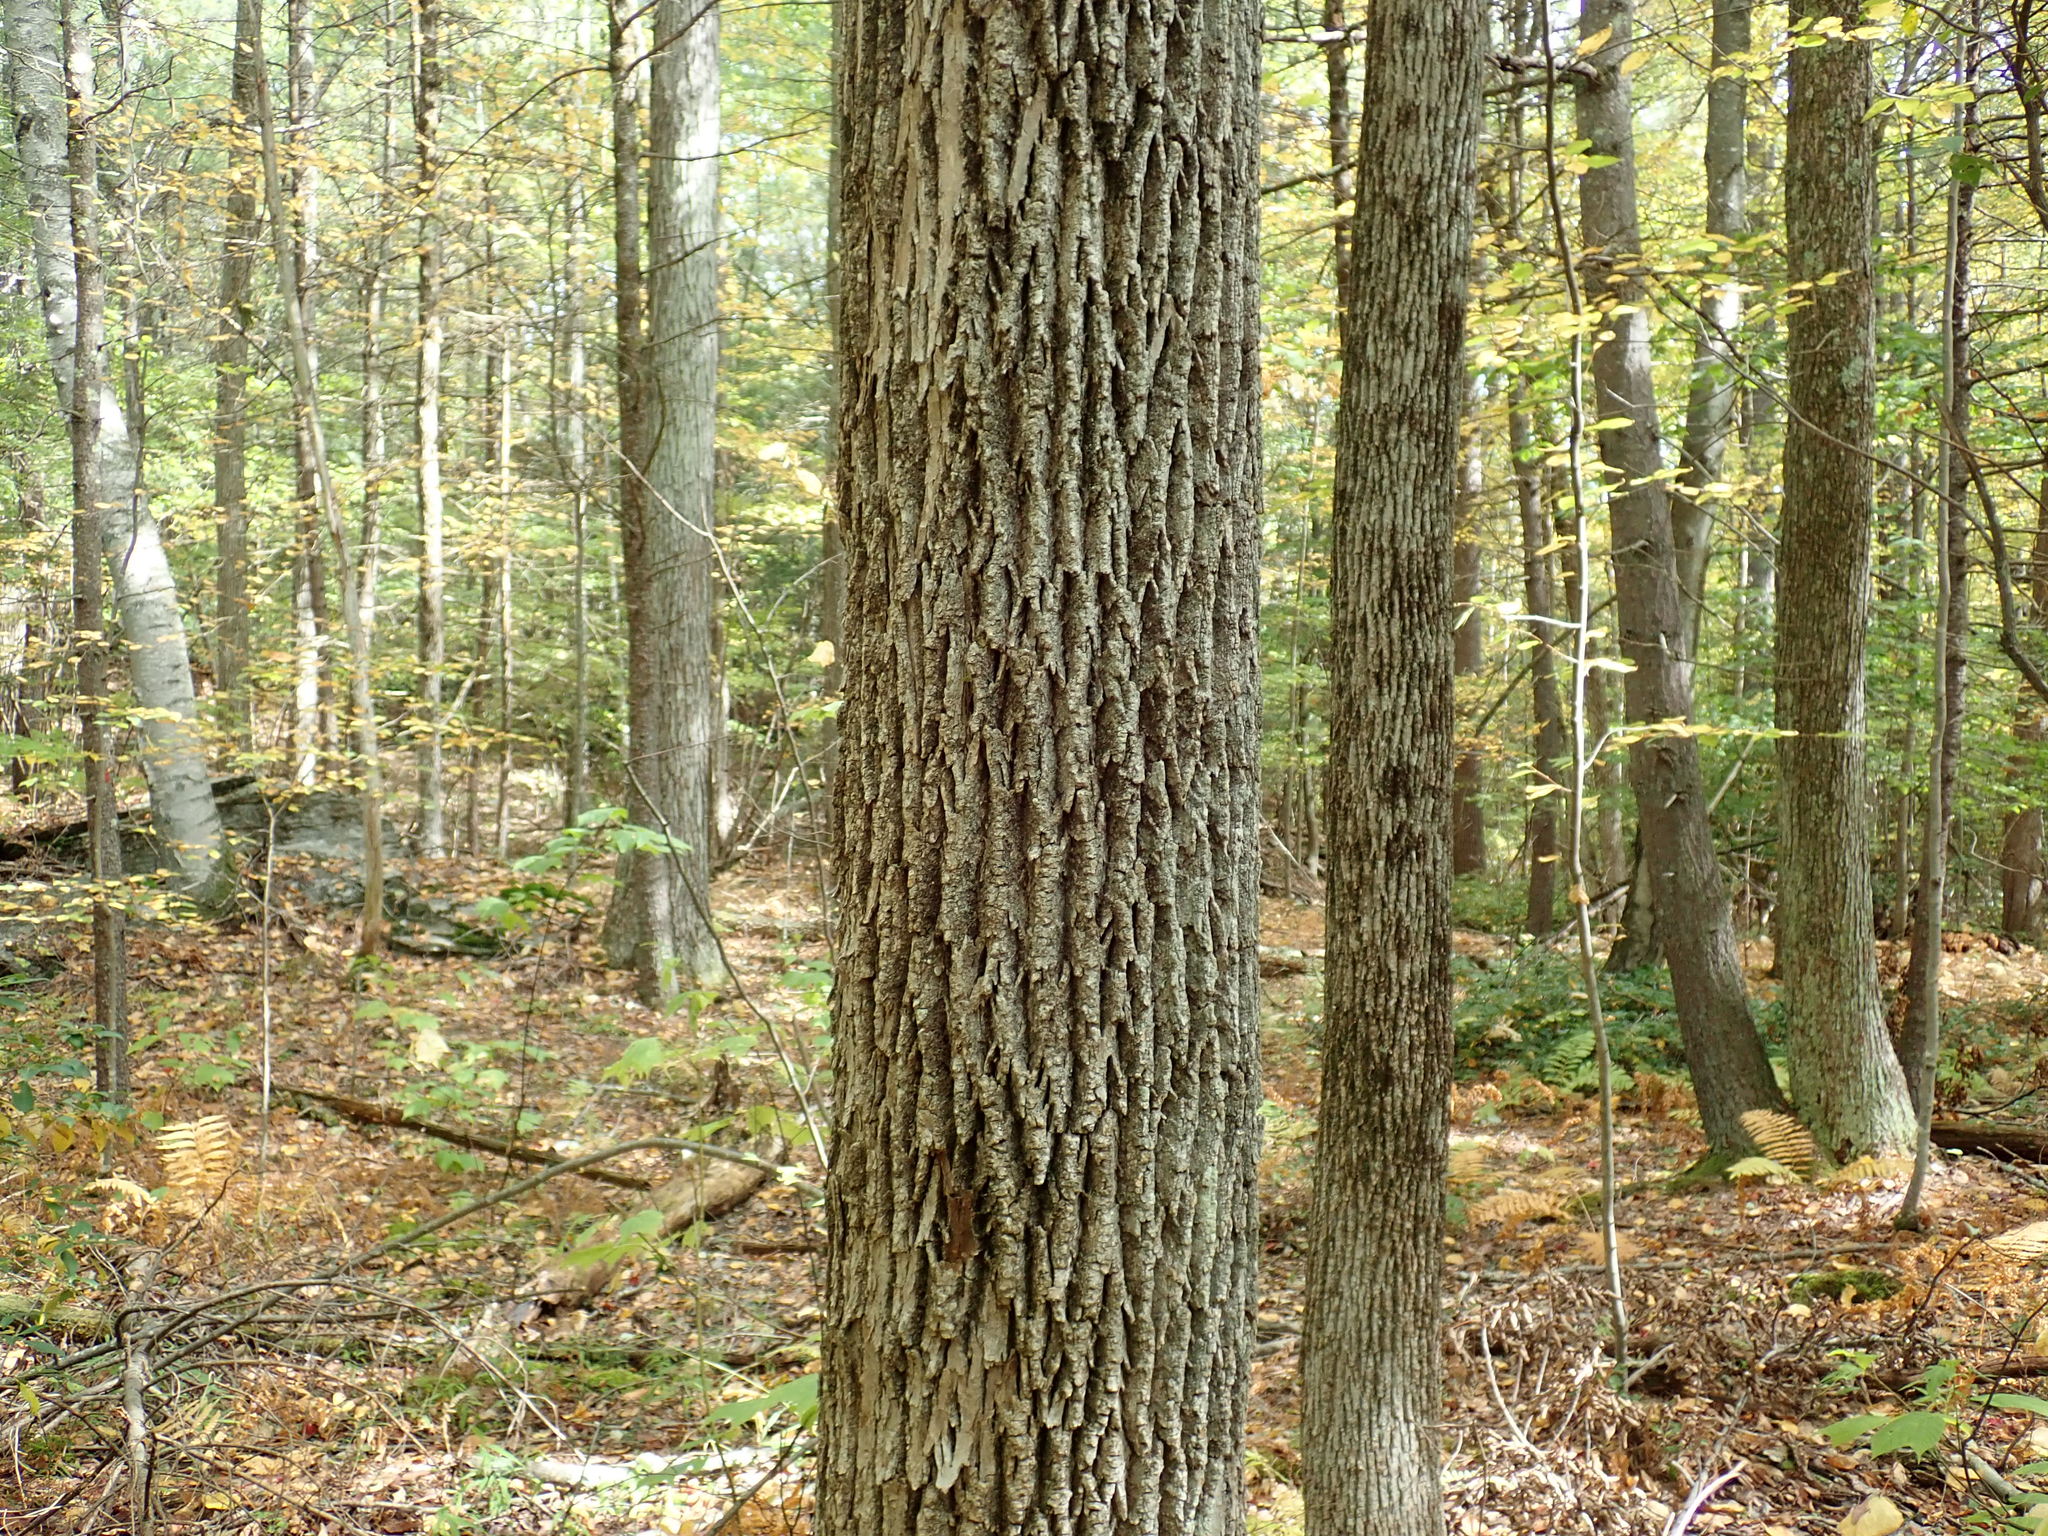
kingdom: Plantae
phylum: Tracheophyta
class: Magnoliopsida
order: Lamiales
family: Oleaceae
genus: Fraxinus
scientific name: Fraxinus americana
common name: White ash
